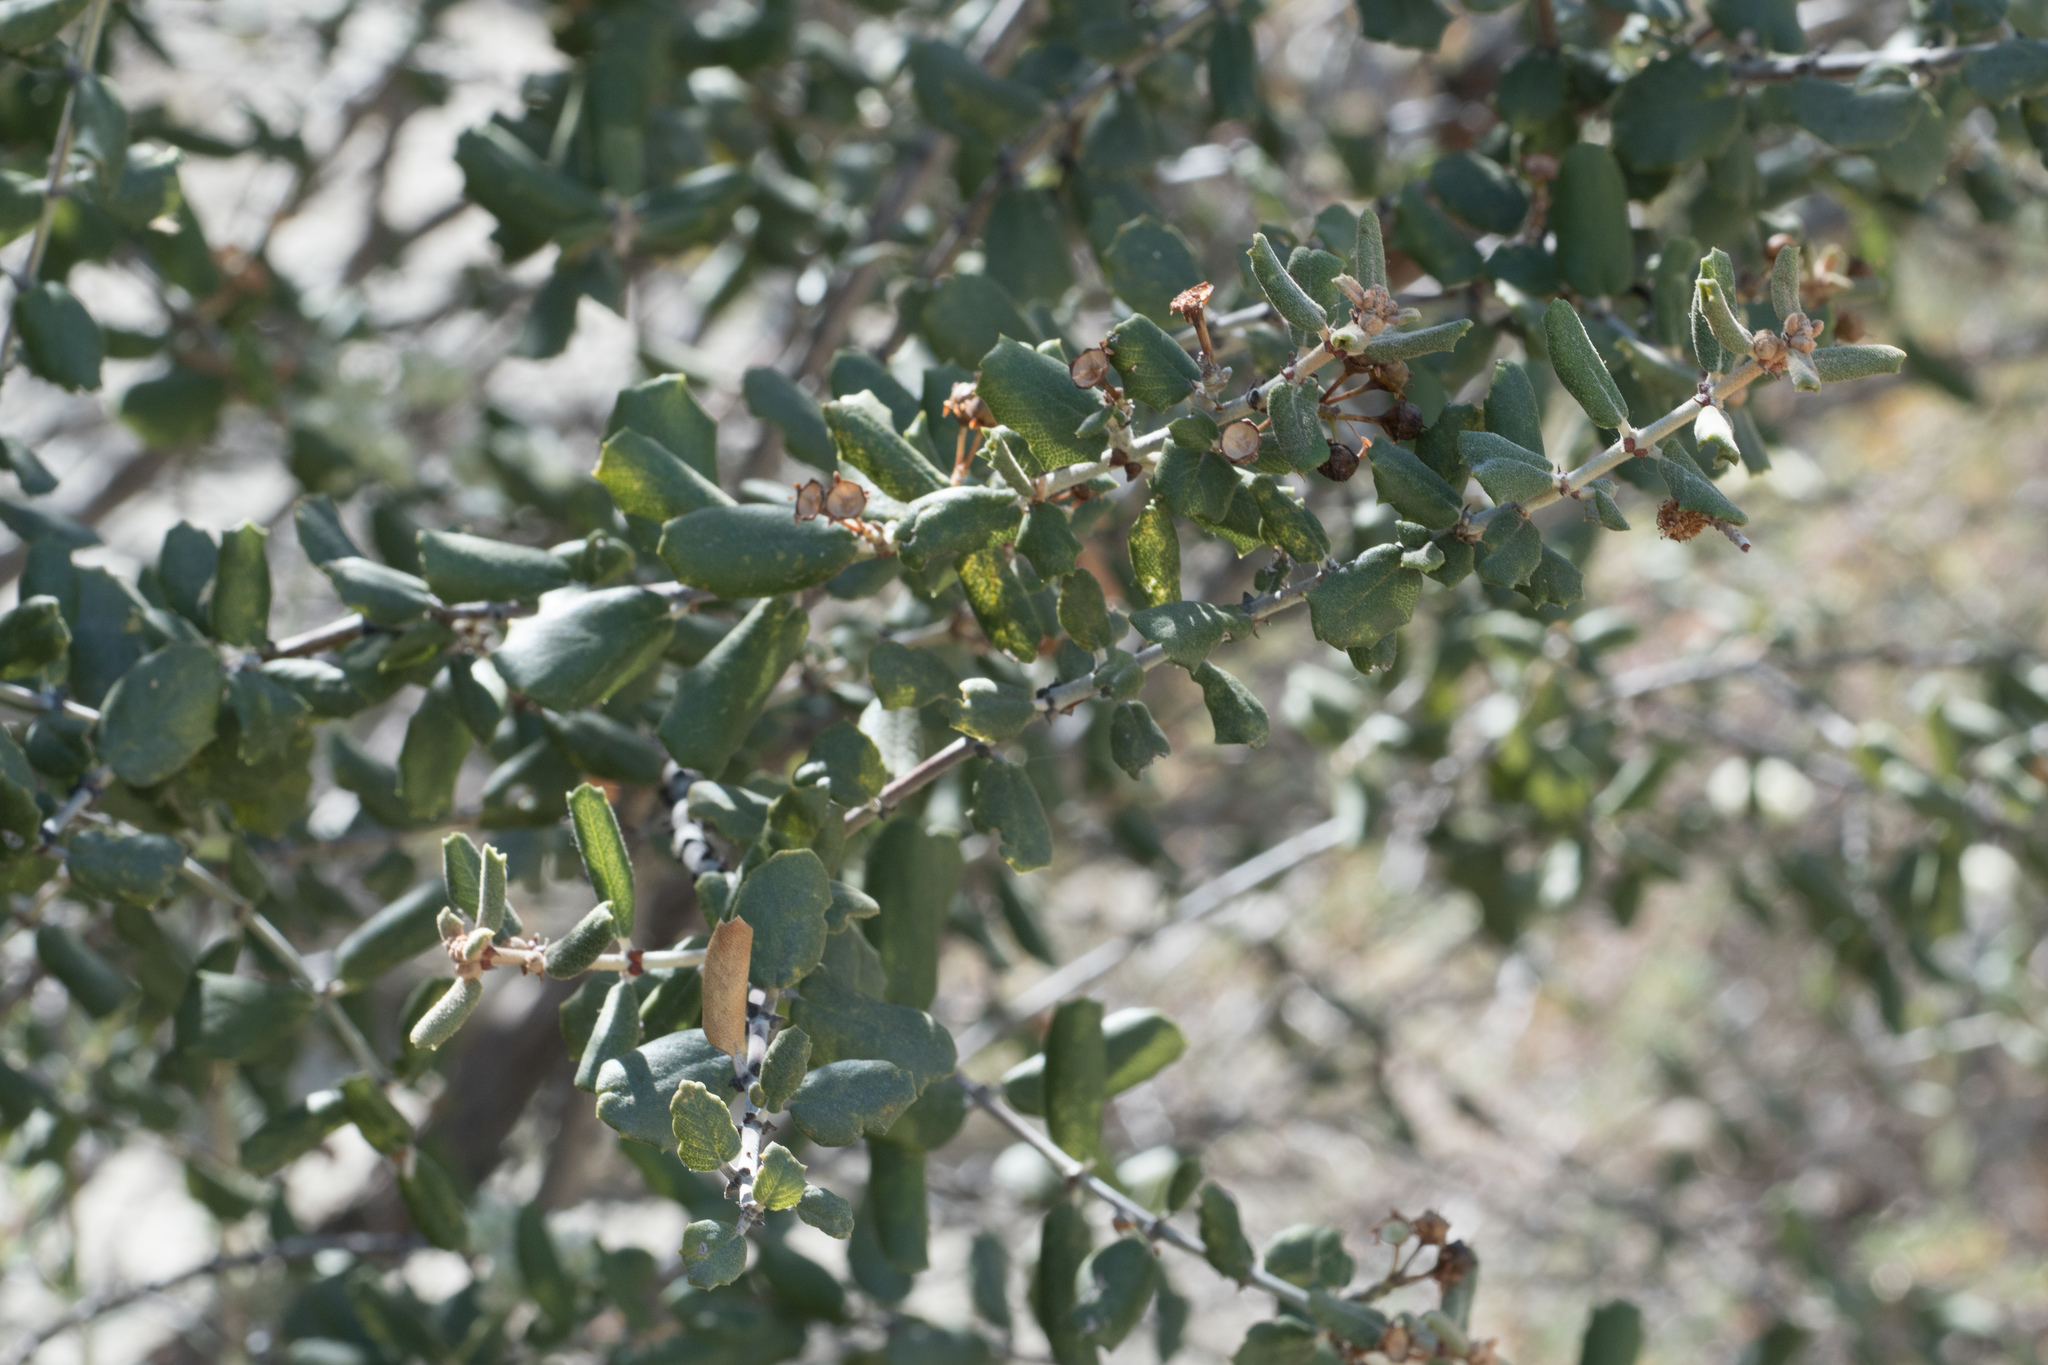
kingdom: Plantae
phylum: Tracheophyta
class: Magnoliopsida
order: Rosales
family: Rhamnaceae
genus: Ceanothus
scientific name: Ceanothus crassifolius
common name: Hoaryleaf ceanothus
